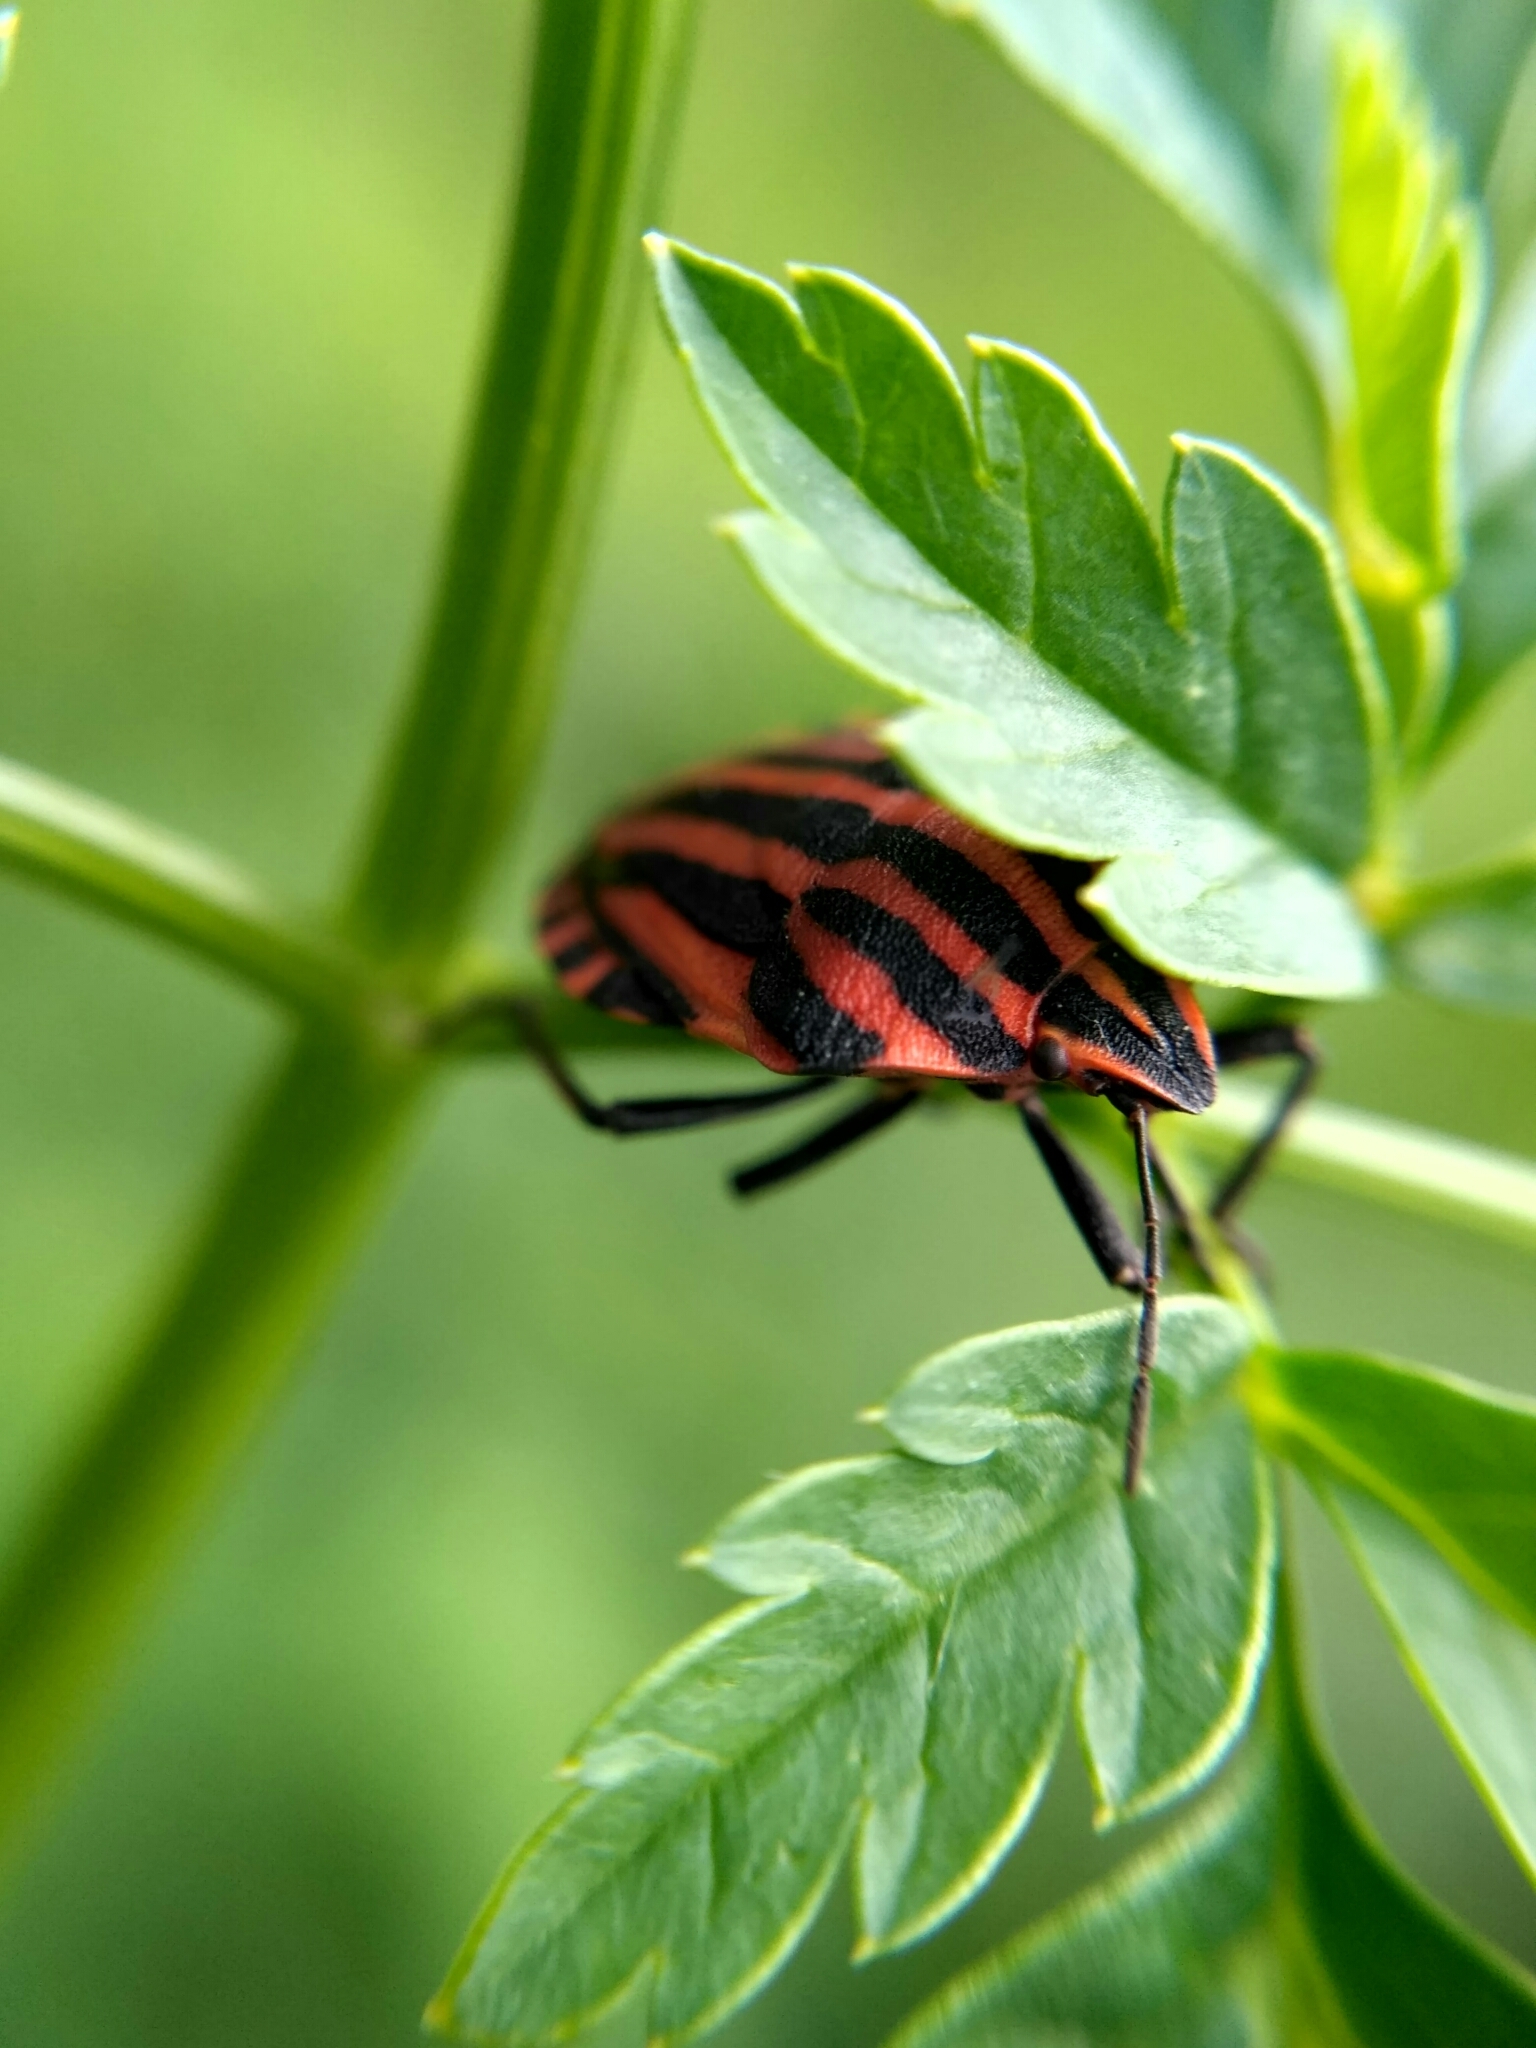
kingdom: Animalia
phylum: Arthropoda
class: Insecta
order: Hemiptera
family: Pentatomidae
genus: Graphosoma
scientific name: Graphosoma italicum
